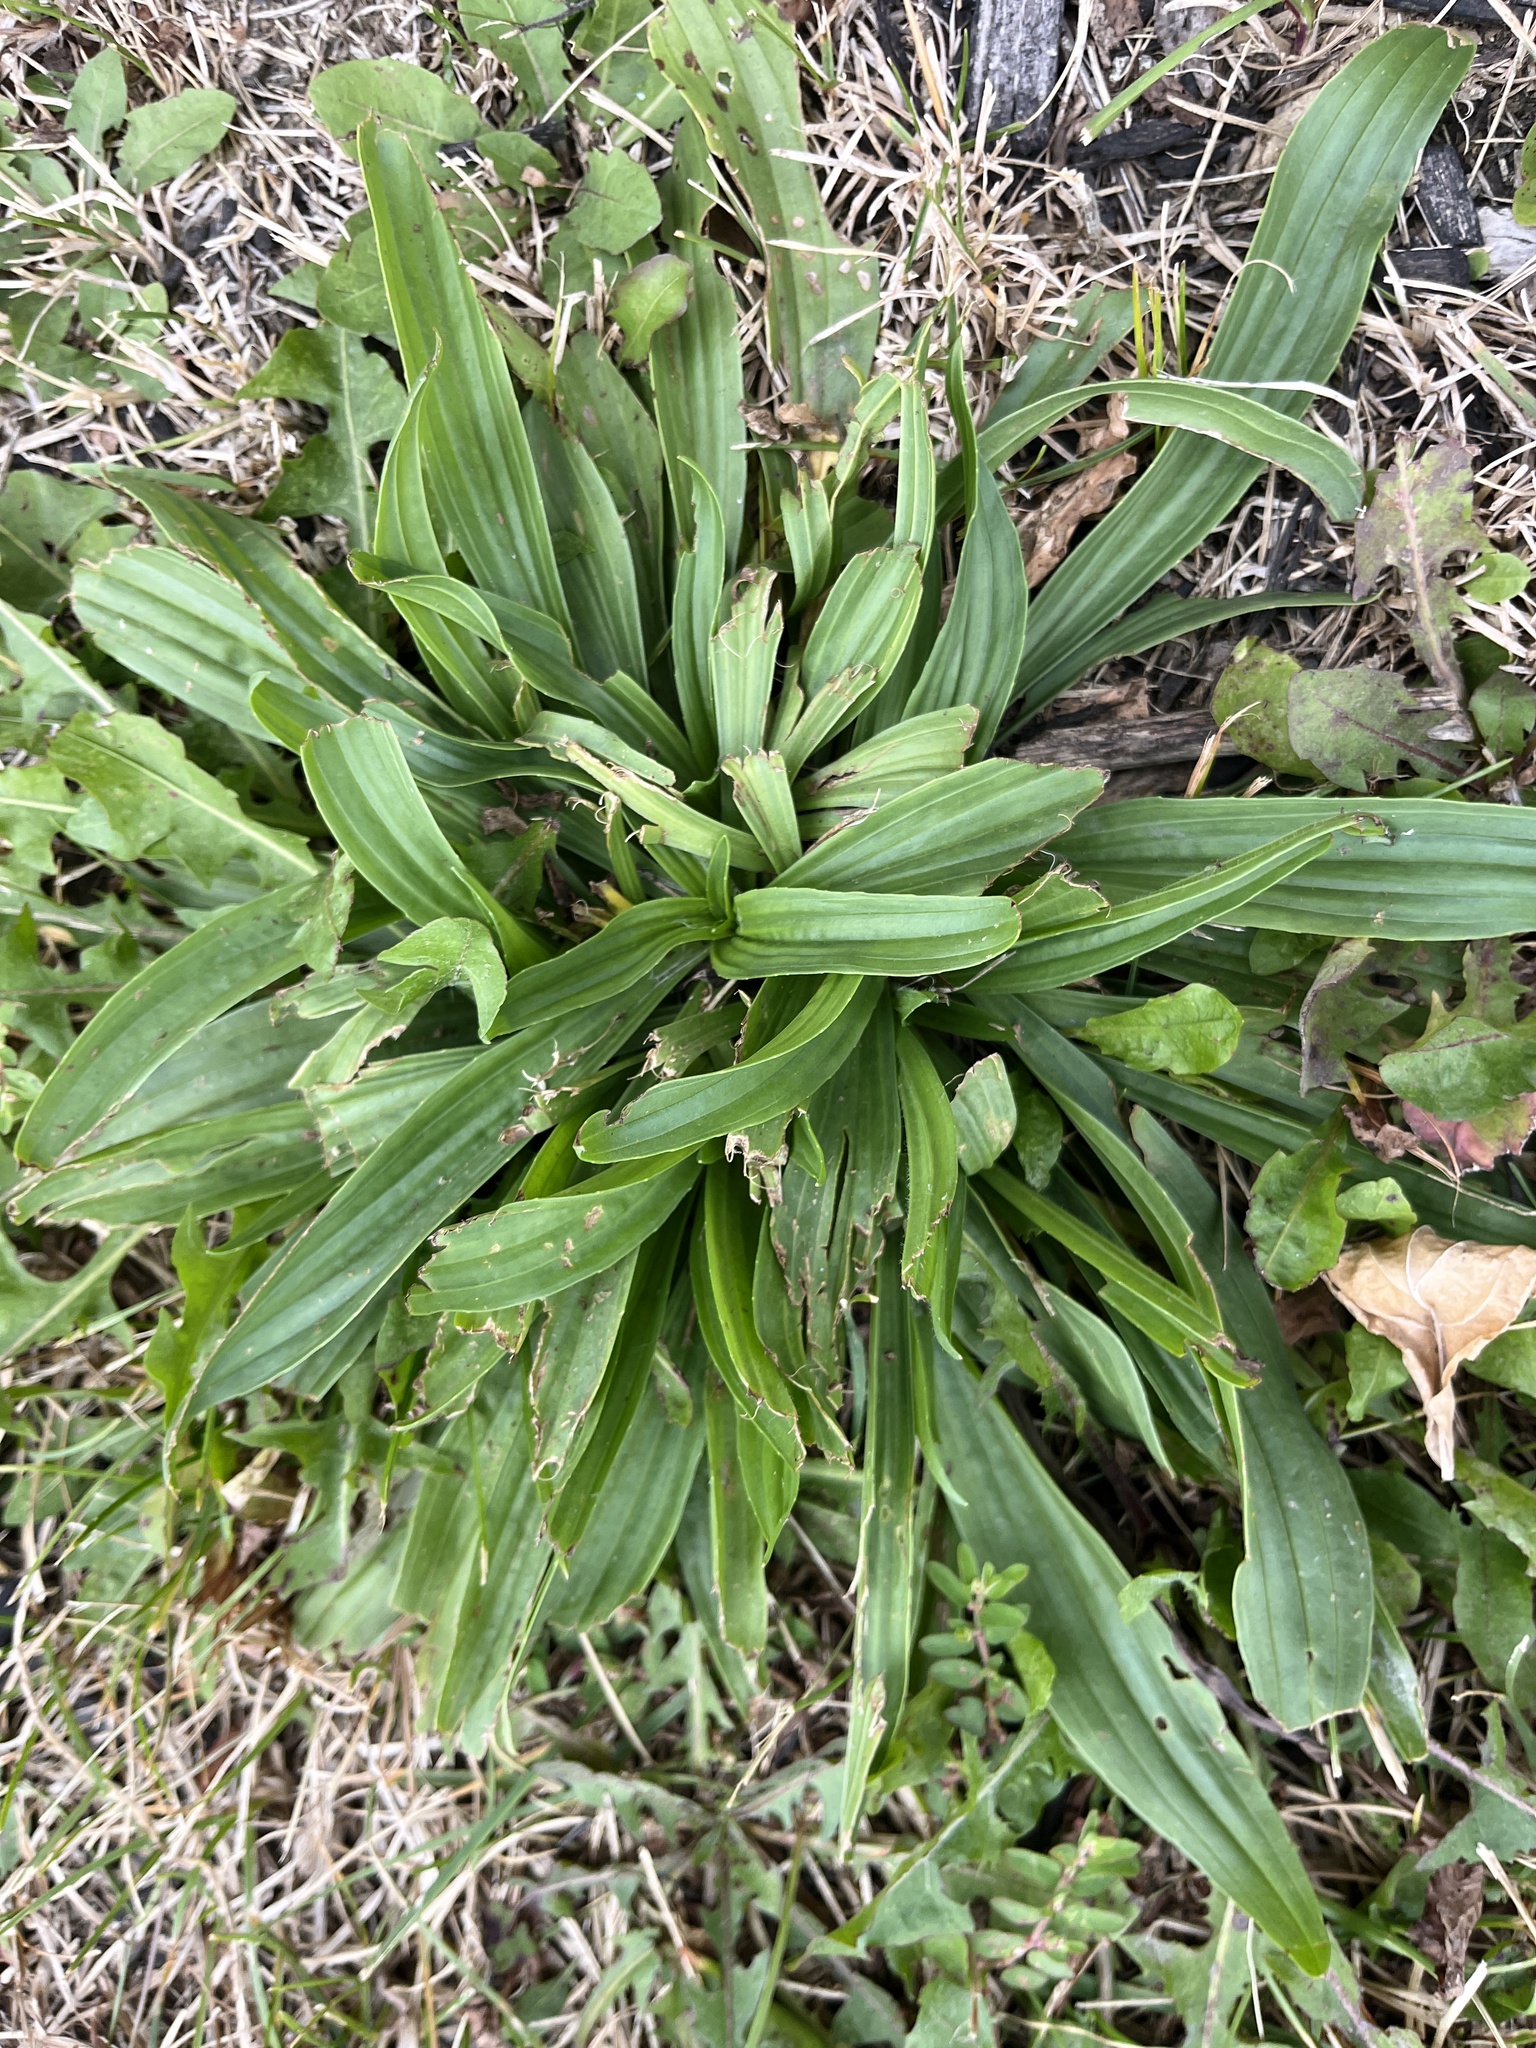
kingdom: Plantae
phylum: Tracheophyta
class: Magnoliopsida
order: Lamiales
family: Plantaginaceae
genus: Plantago
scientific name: Plantago lanceolata
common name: Ribwort plantain
